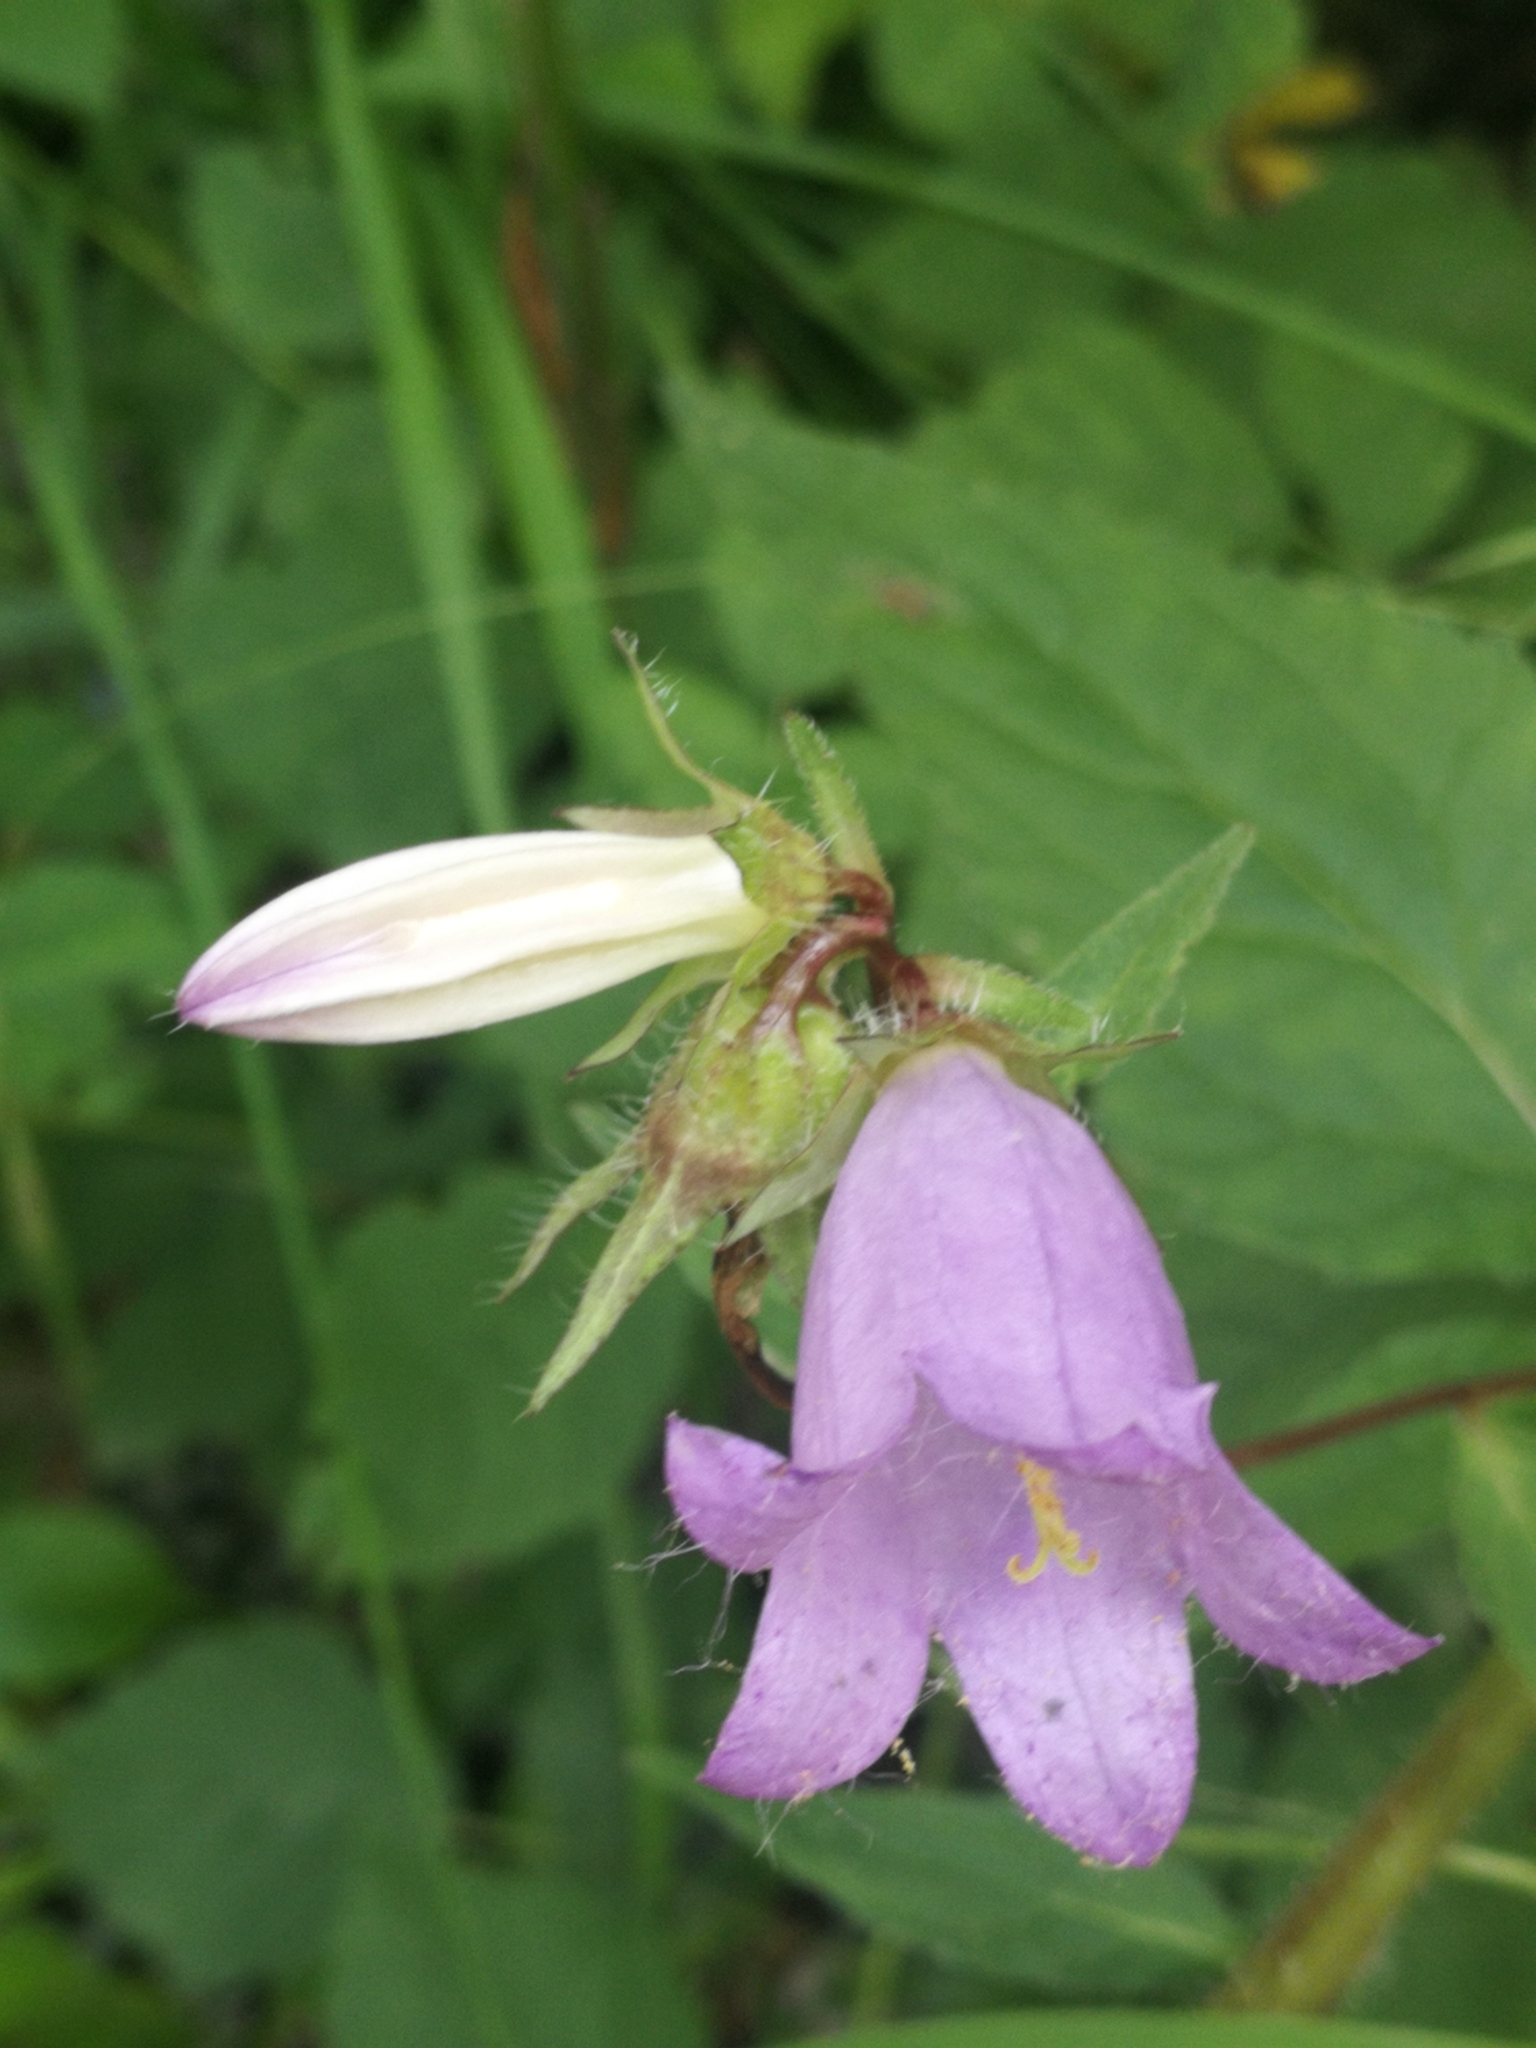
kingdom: Plantae
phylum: Tracheophyta
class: Magnoliopsida
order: Asterales
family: Campanulaceae
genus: Campanula
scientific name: Campanula trachelium
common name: Nettle-leaved bellflower
